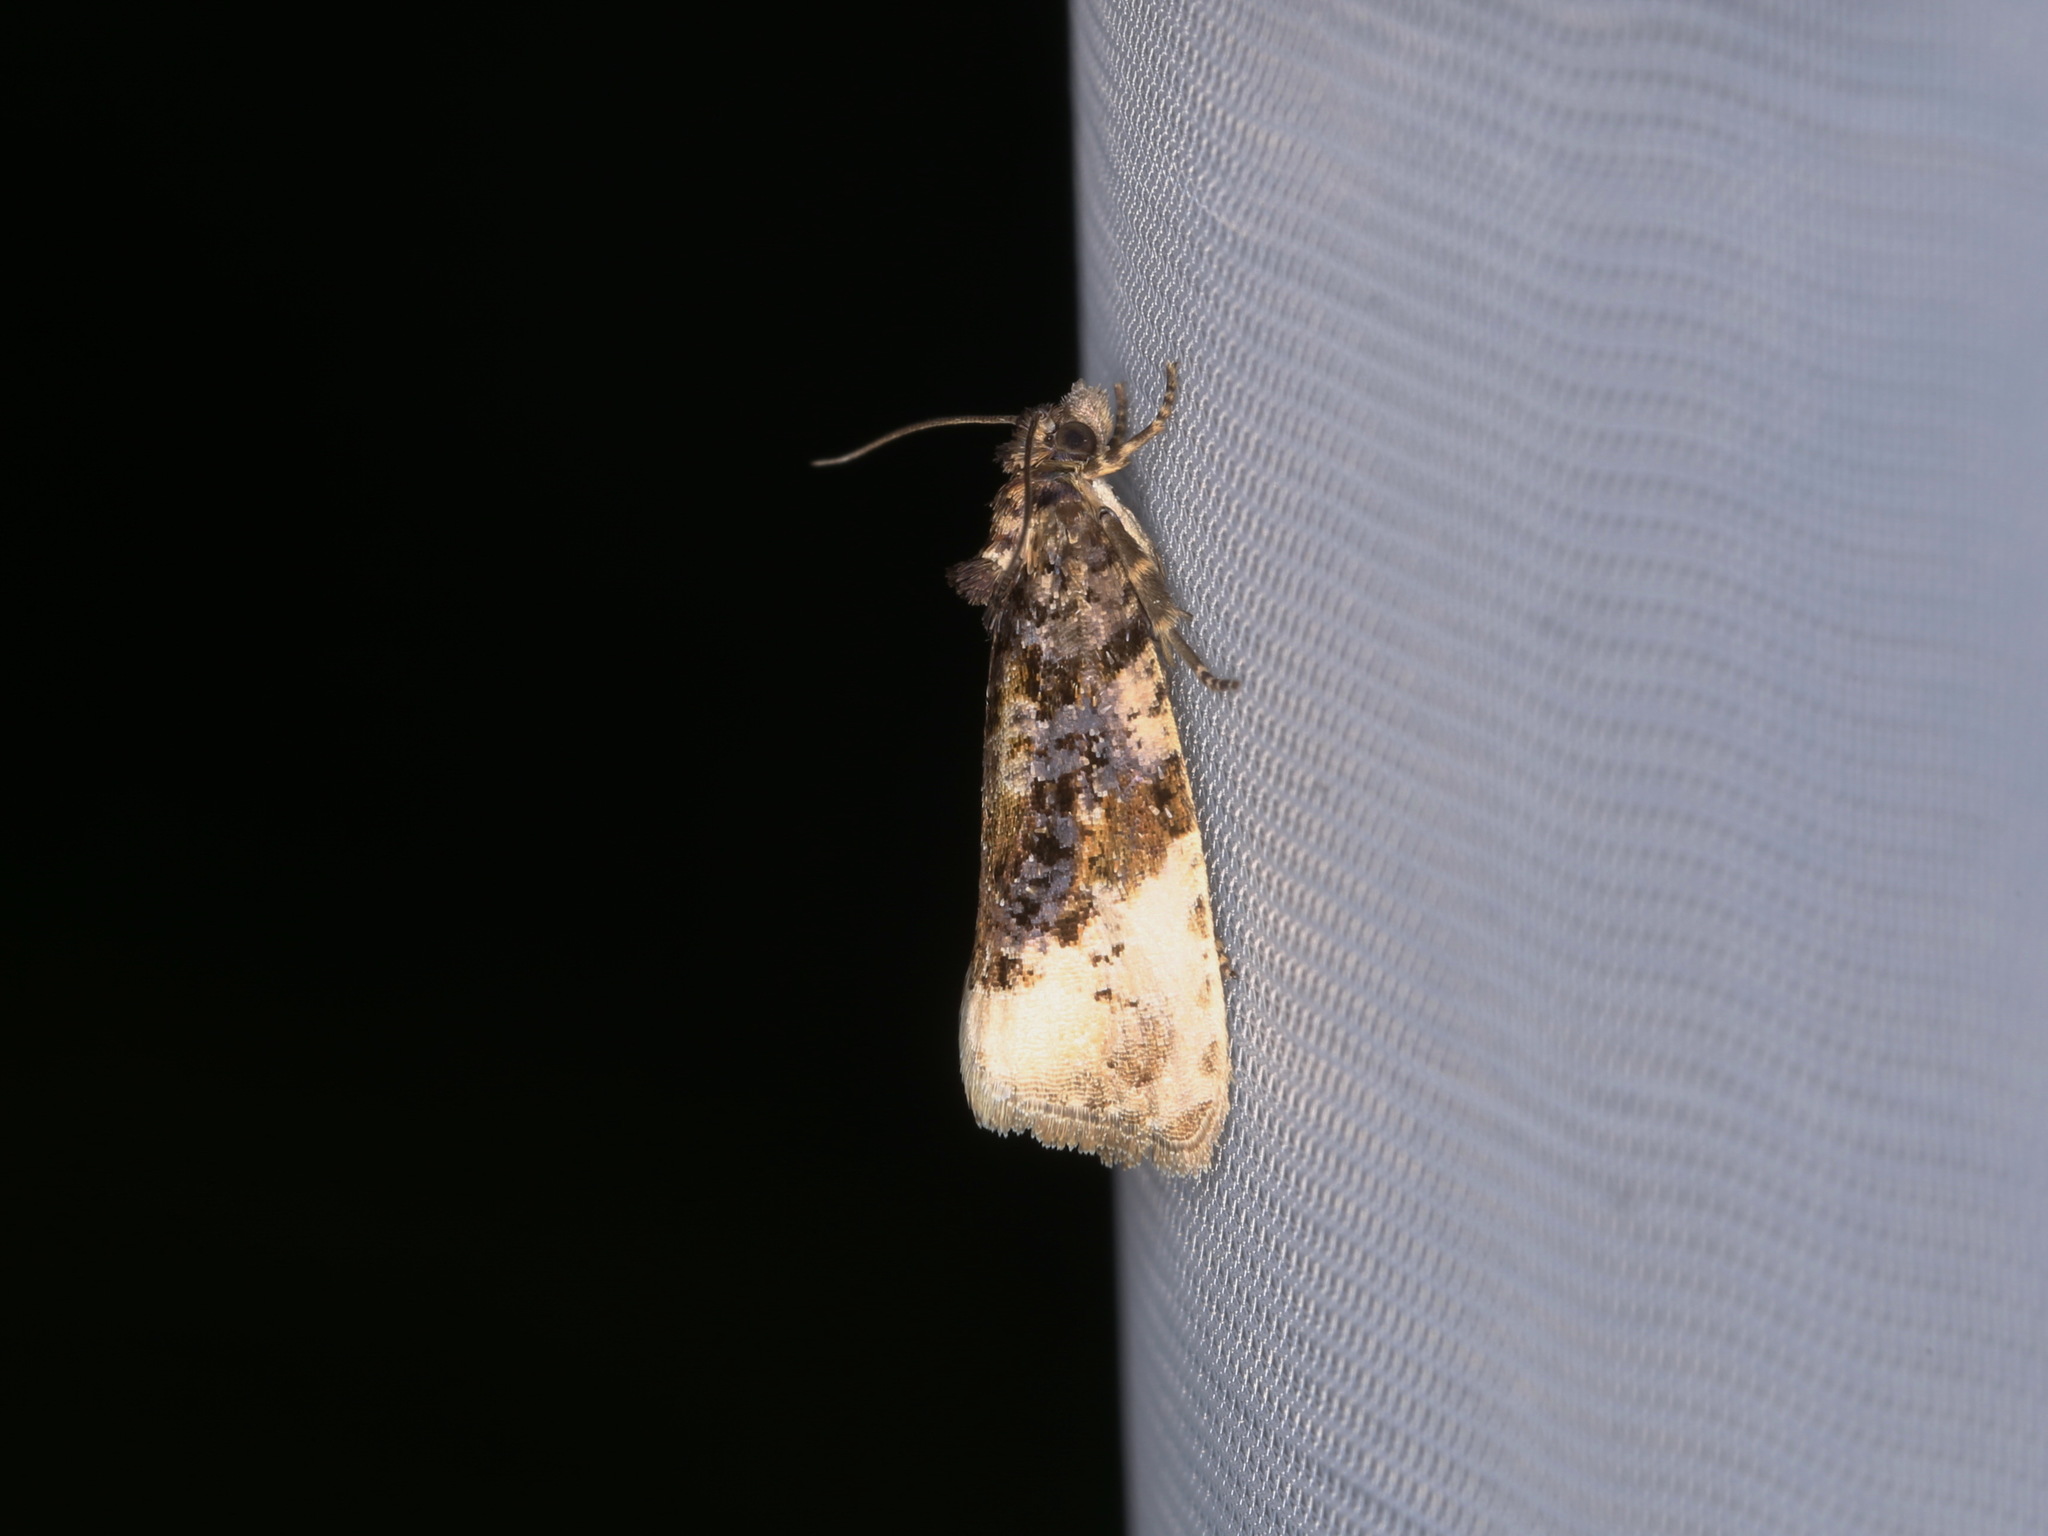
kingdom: Animalia
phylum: Arthropoda
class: Insecta
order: Lepidoptera
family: Tortricidae
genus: Hedya
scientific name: Hedya ochroleucana
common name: Buff-tipped marble
